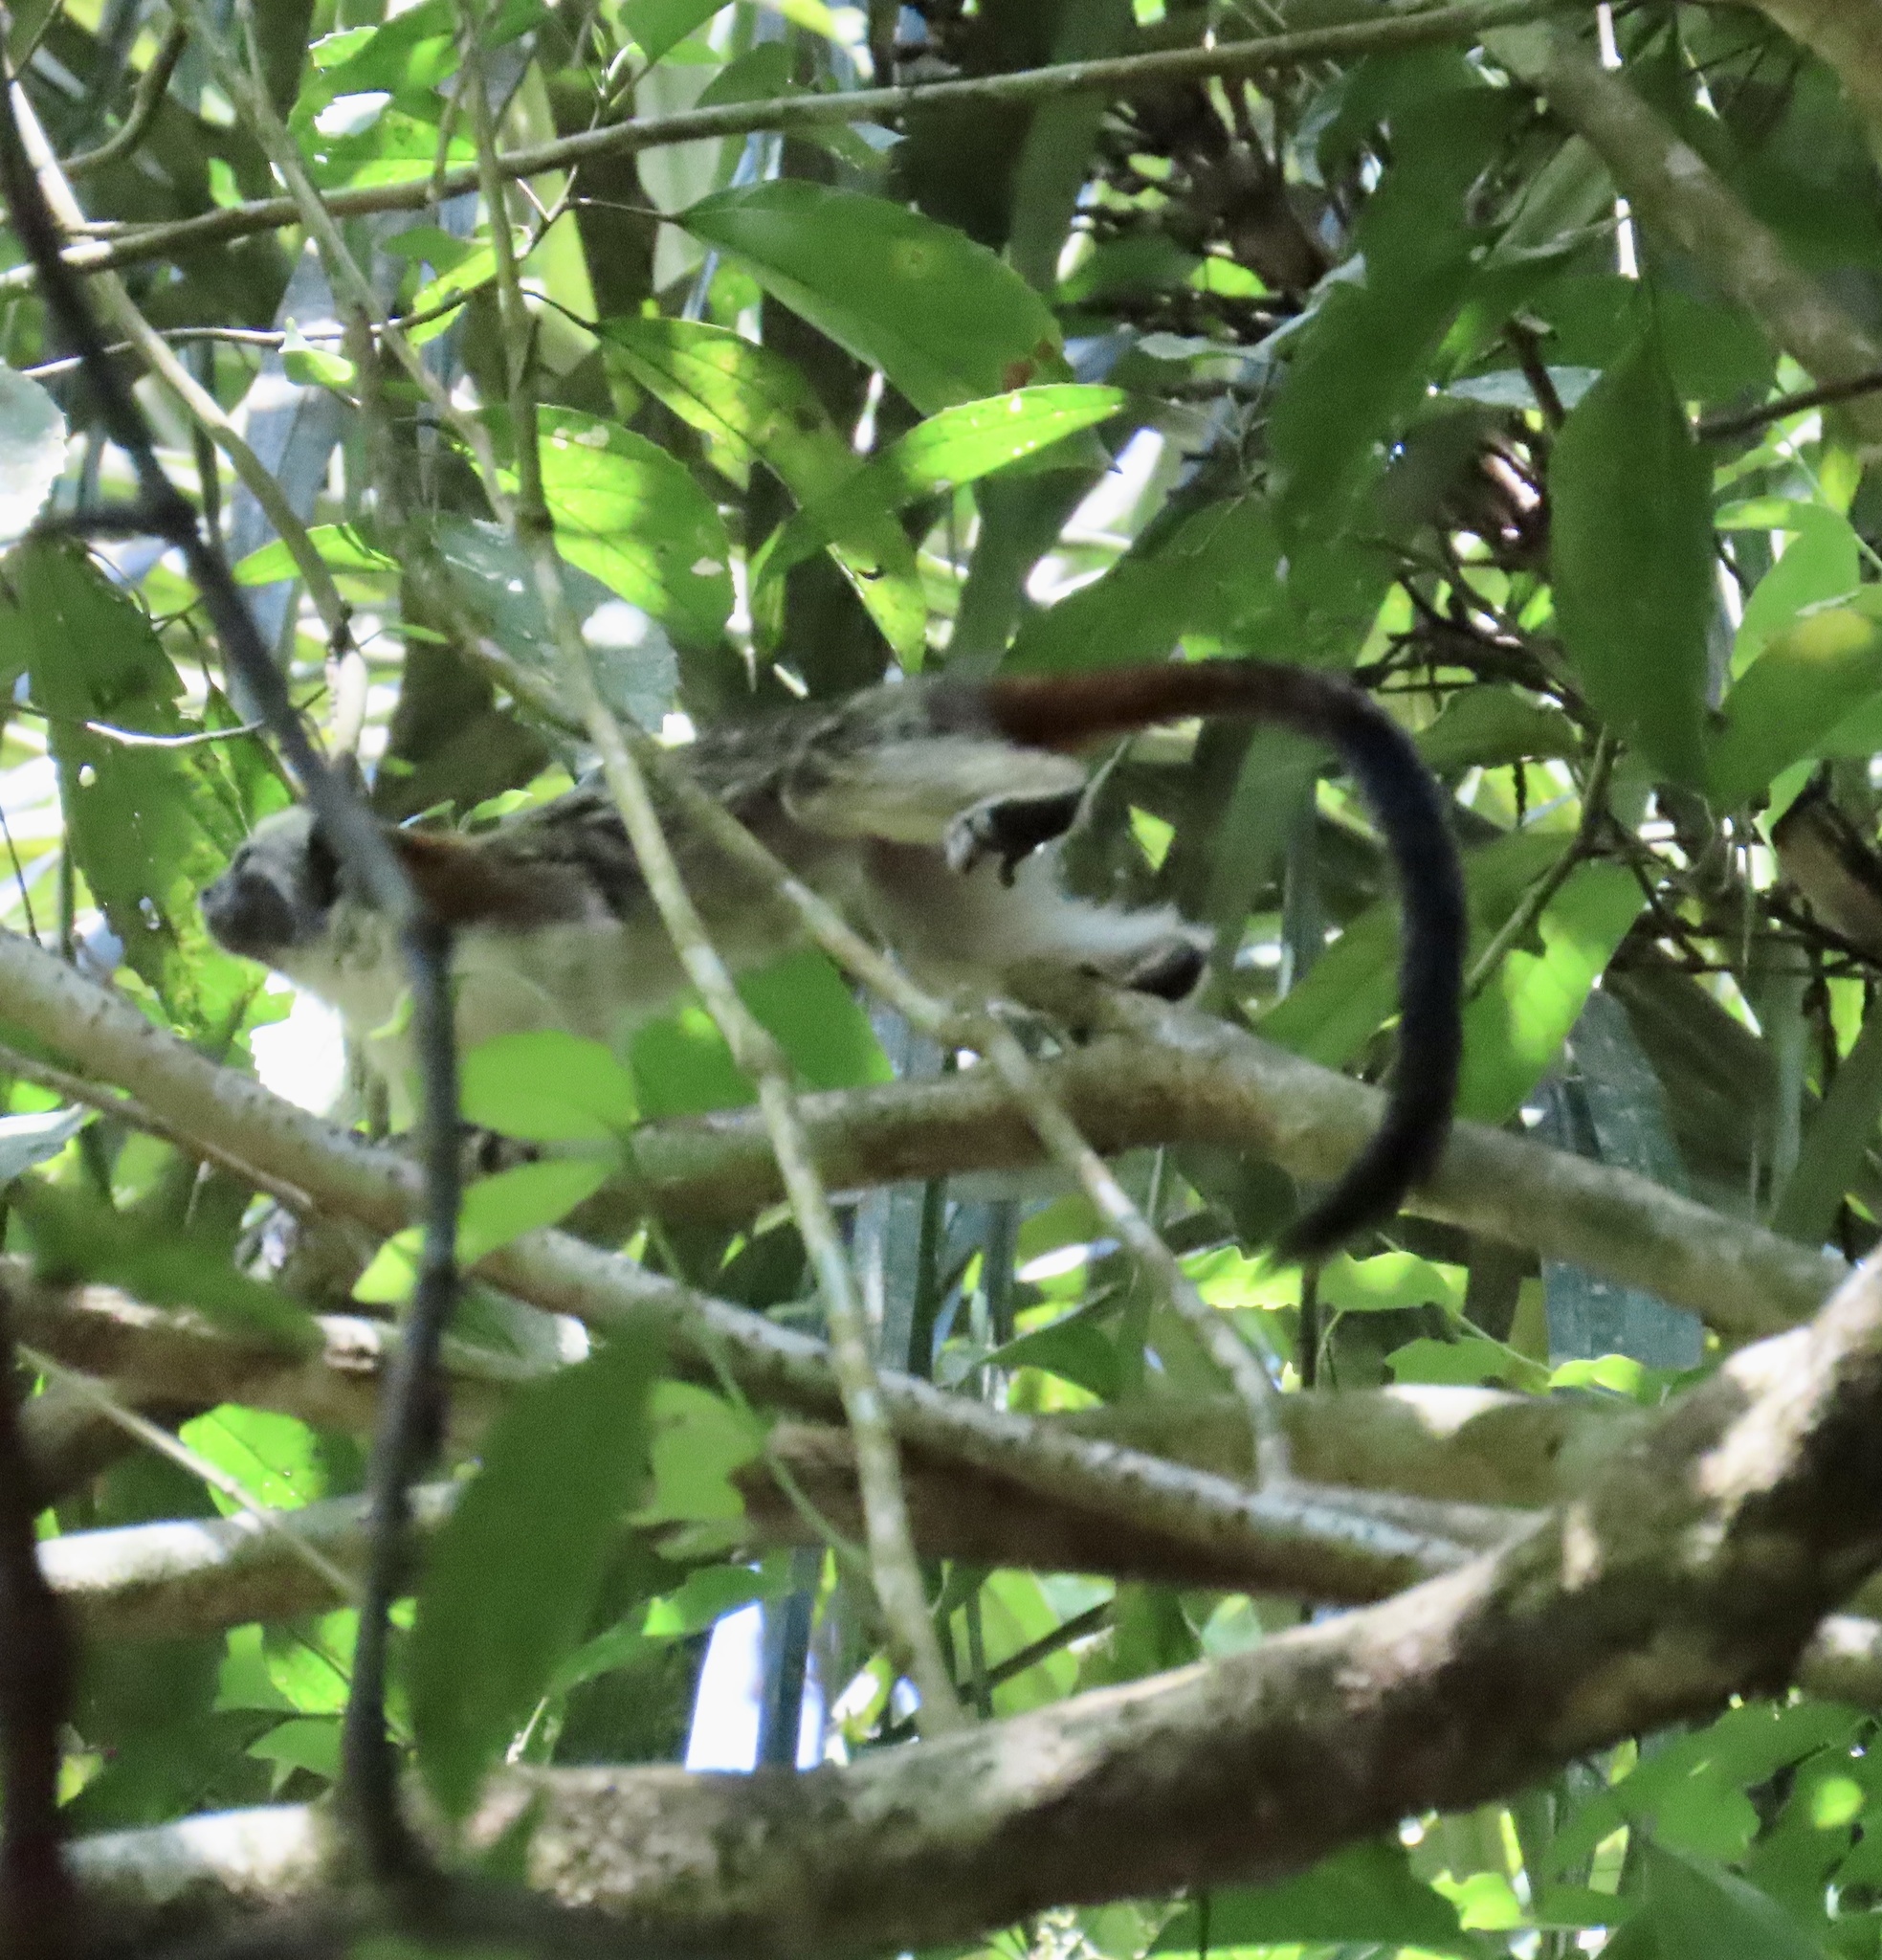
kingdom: Animalia
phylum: Chordata
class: Mammalia
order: Primates
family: Callitrichidae
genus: Saguinus
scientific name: Saguinus geoffroyi
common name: Geoffroy s tamarin
